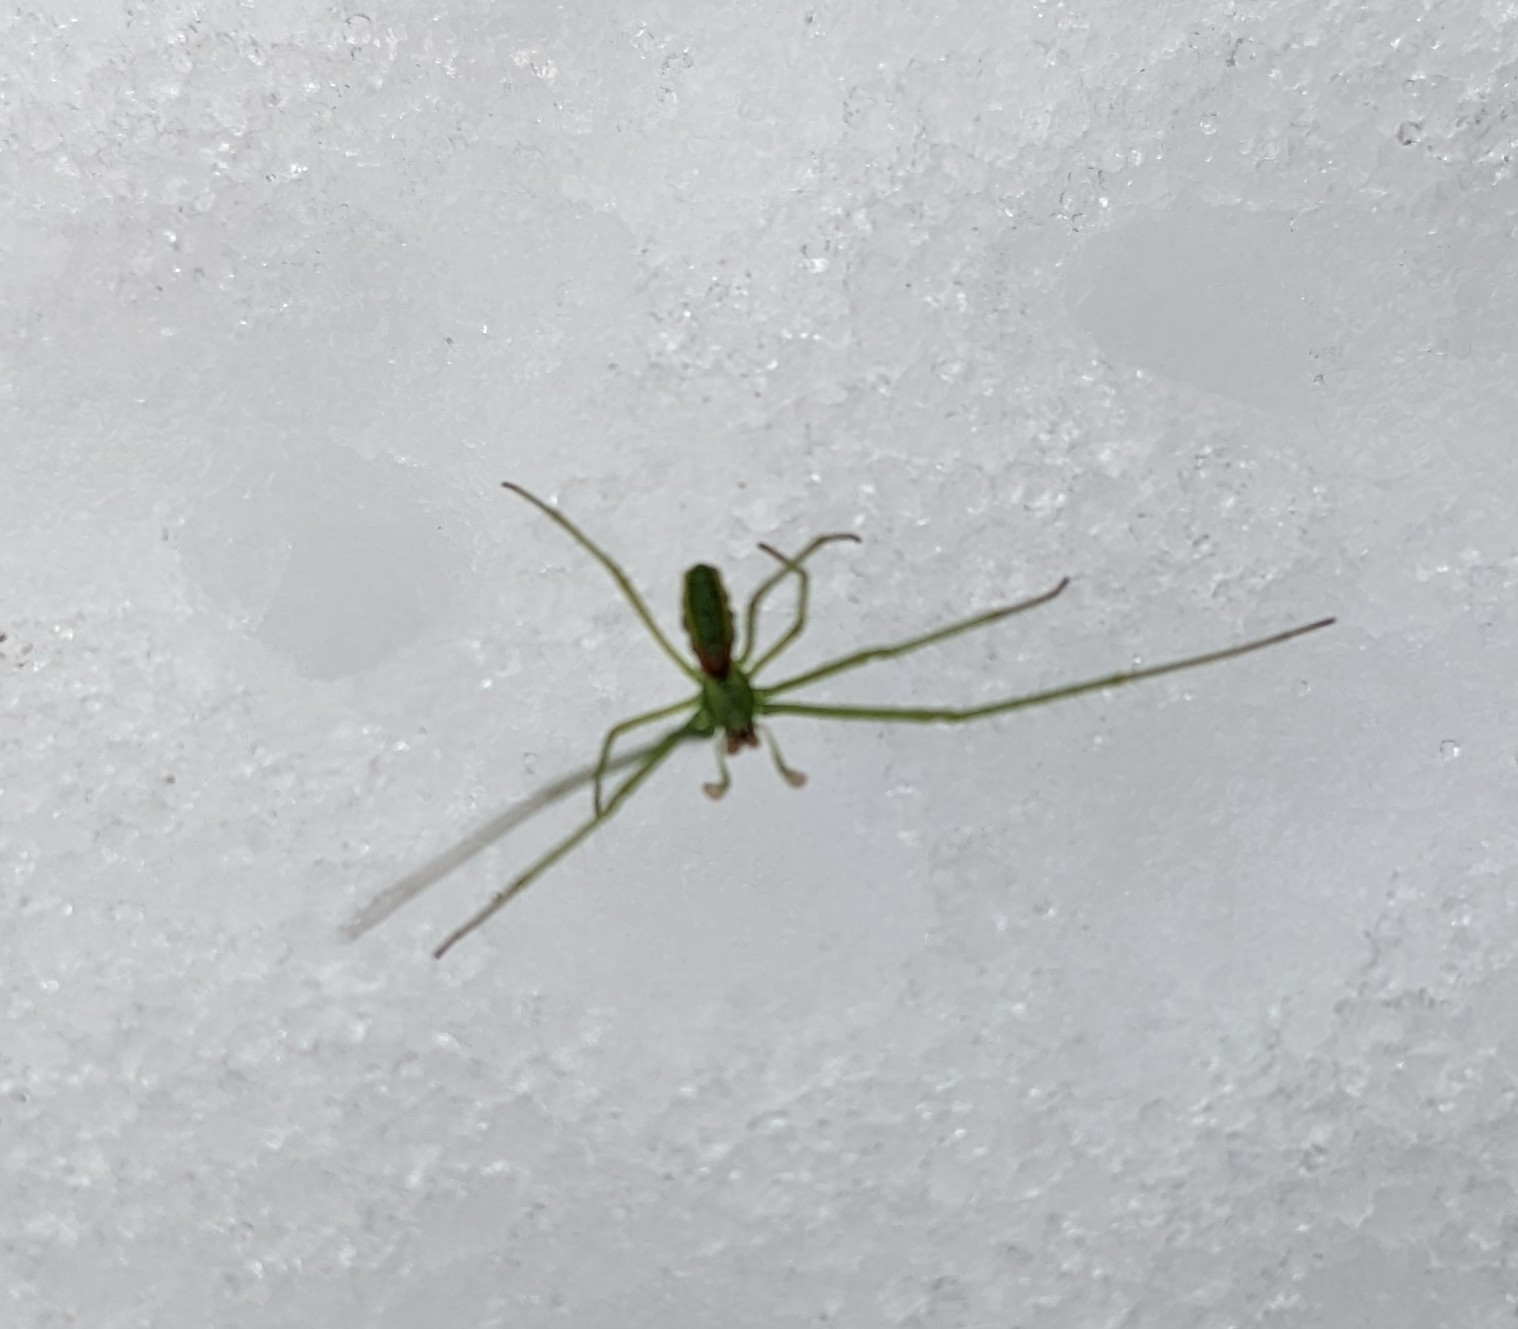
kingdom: Animalia
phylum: Arthropoda
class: Arachnida
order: Araneae
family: Tetragnathidae
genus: Tetragnatha
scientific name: Tetragnatha viridis
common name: Green long-jawed spider
